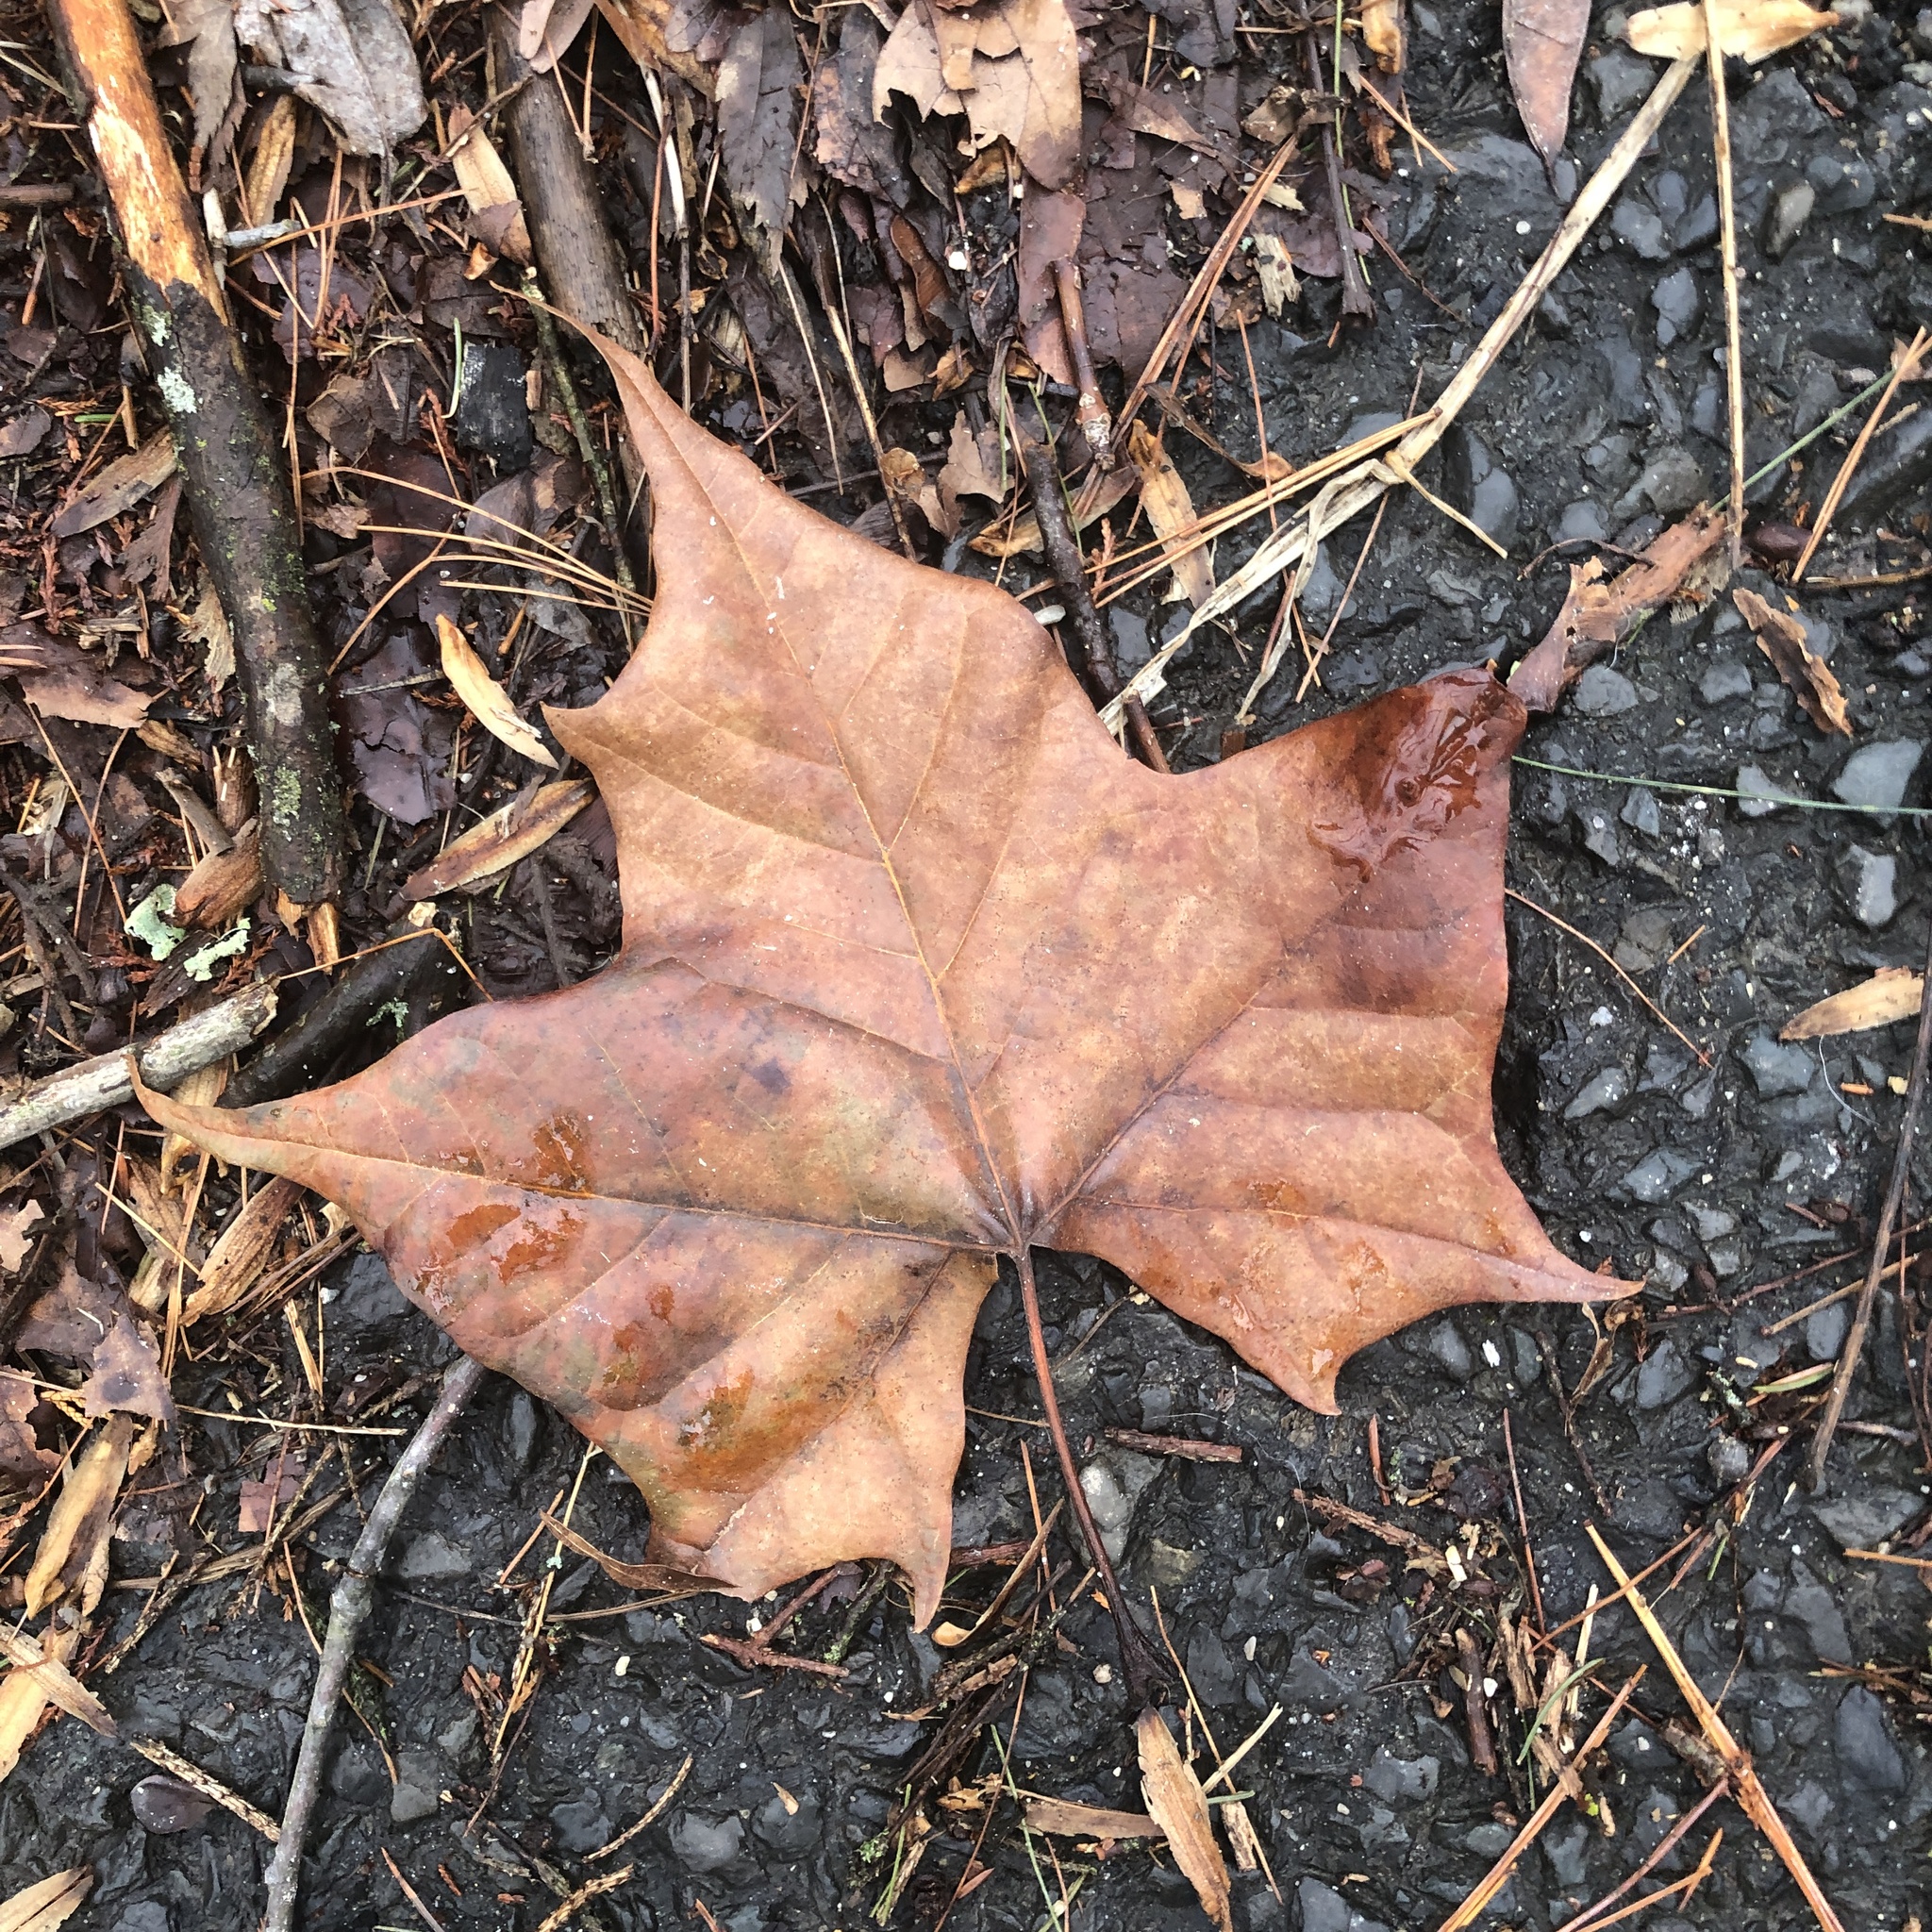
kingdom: Plantae
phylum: Tracheophyta
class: Magnoliopsida
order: Proteales
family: Platanaceae
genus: Platanus
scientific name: Platanus occidentalis
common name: American sycamore
